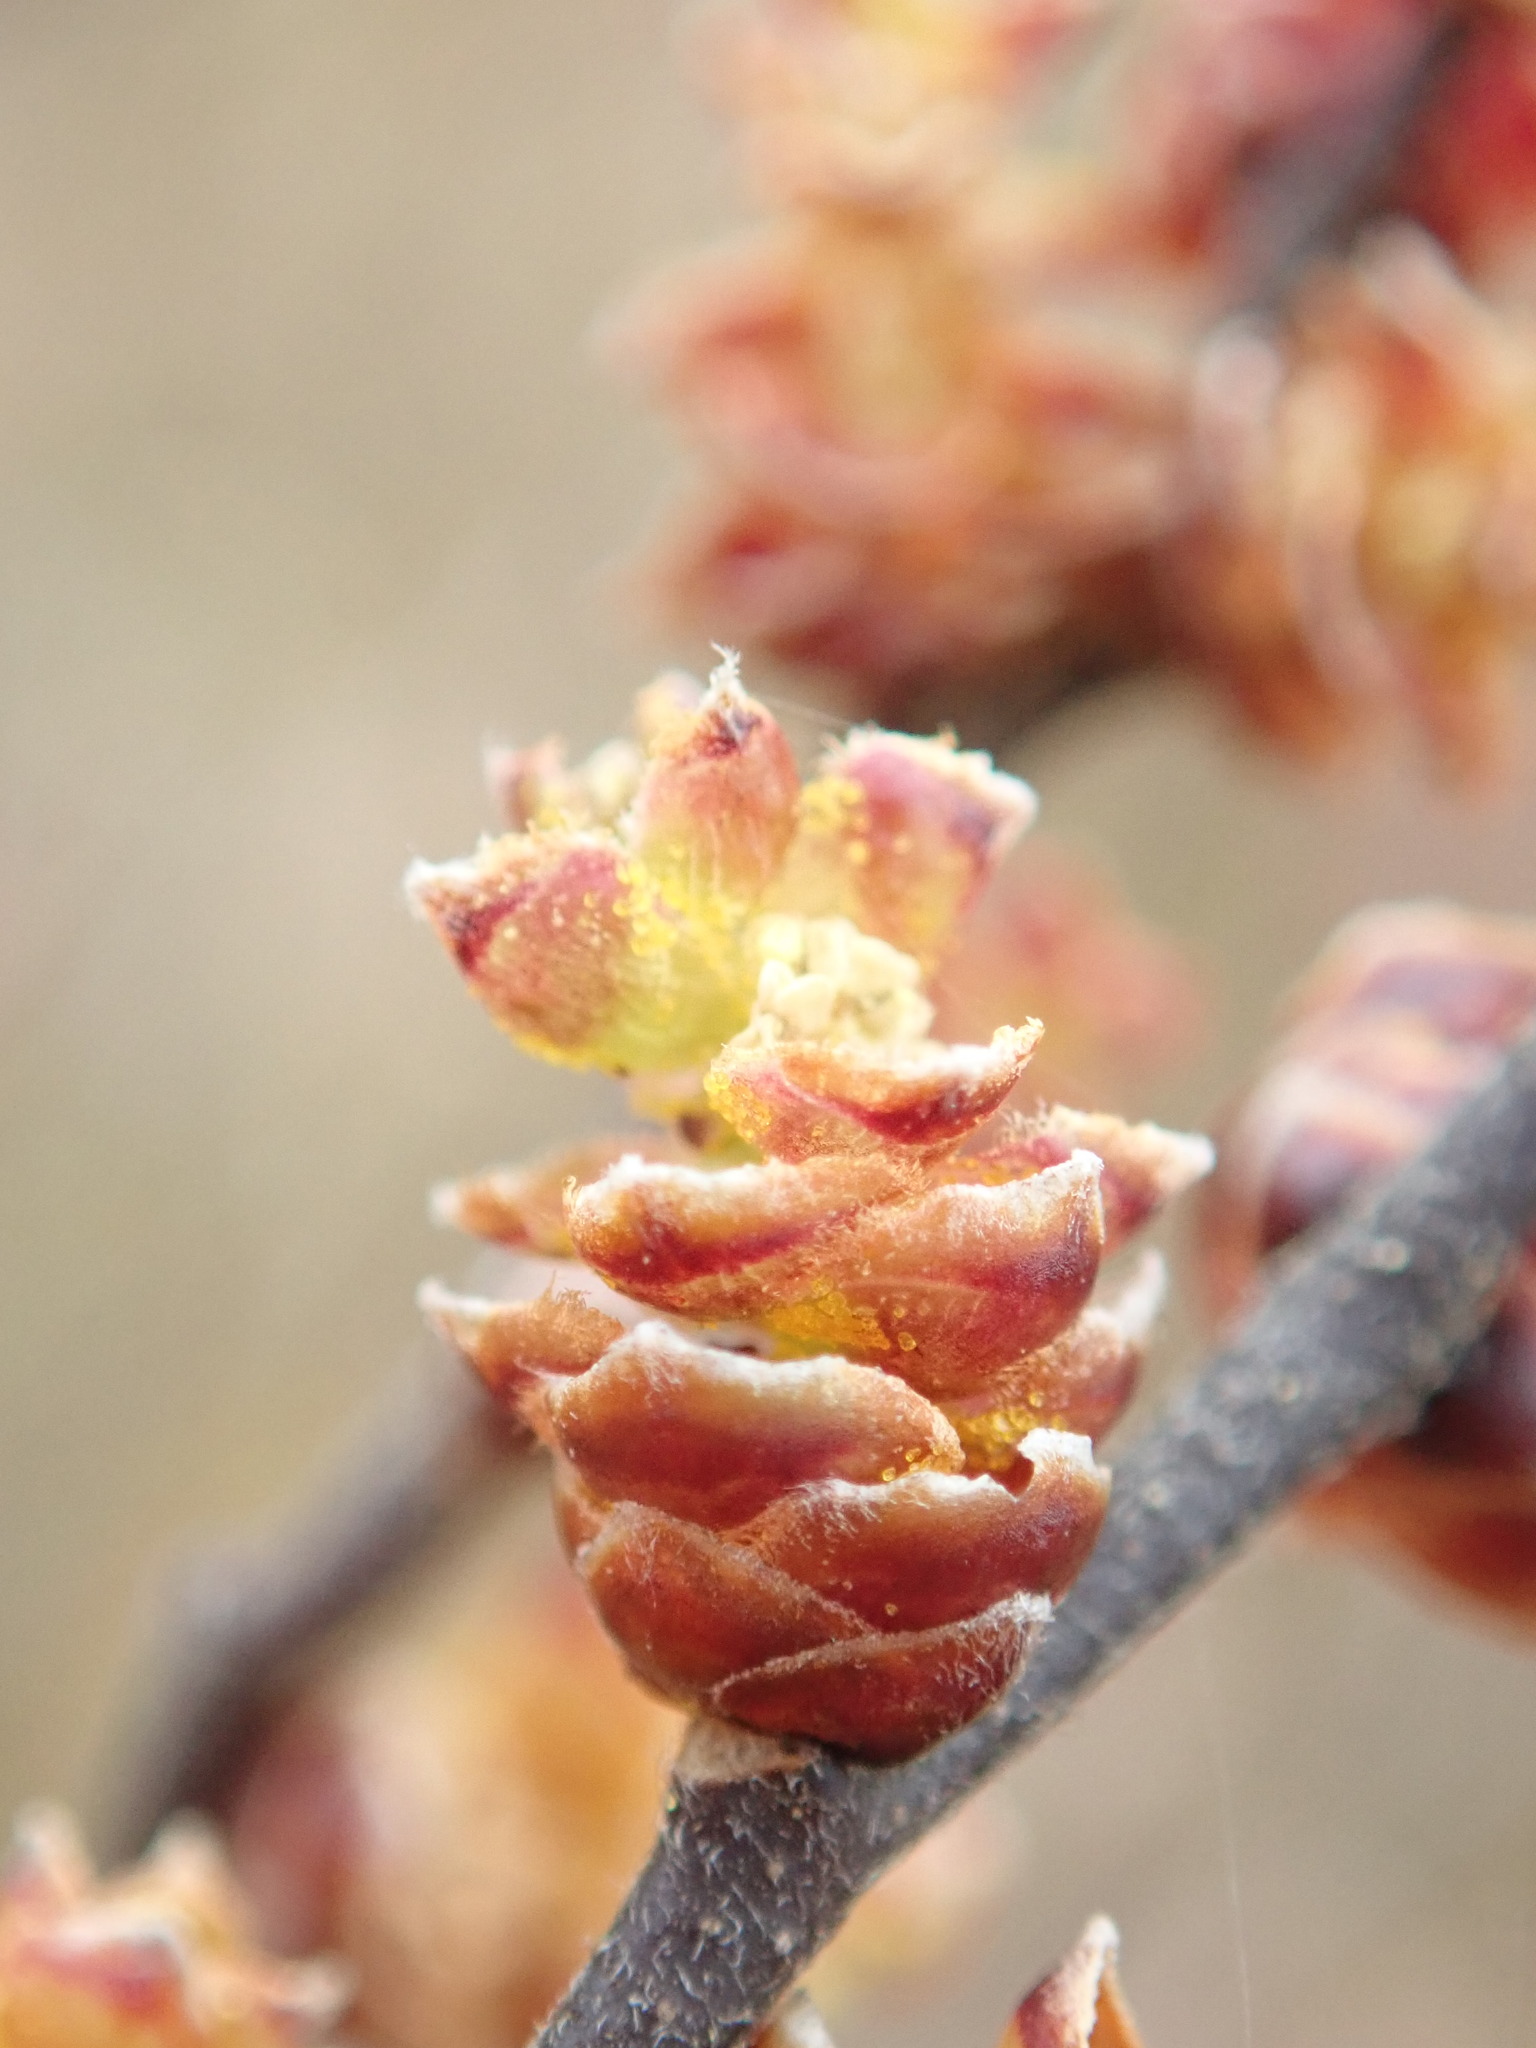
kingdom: Plantae
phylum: Tracheophyta
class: Magnoliopsida
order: Fagales
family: Myricaceae
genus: Myrica
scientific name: Myrica gale
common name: Sweet gale
